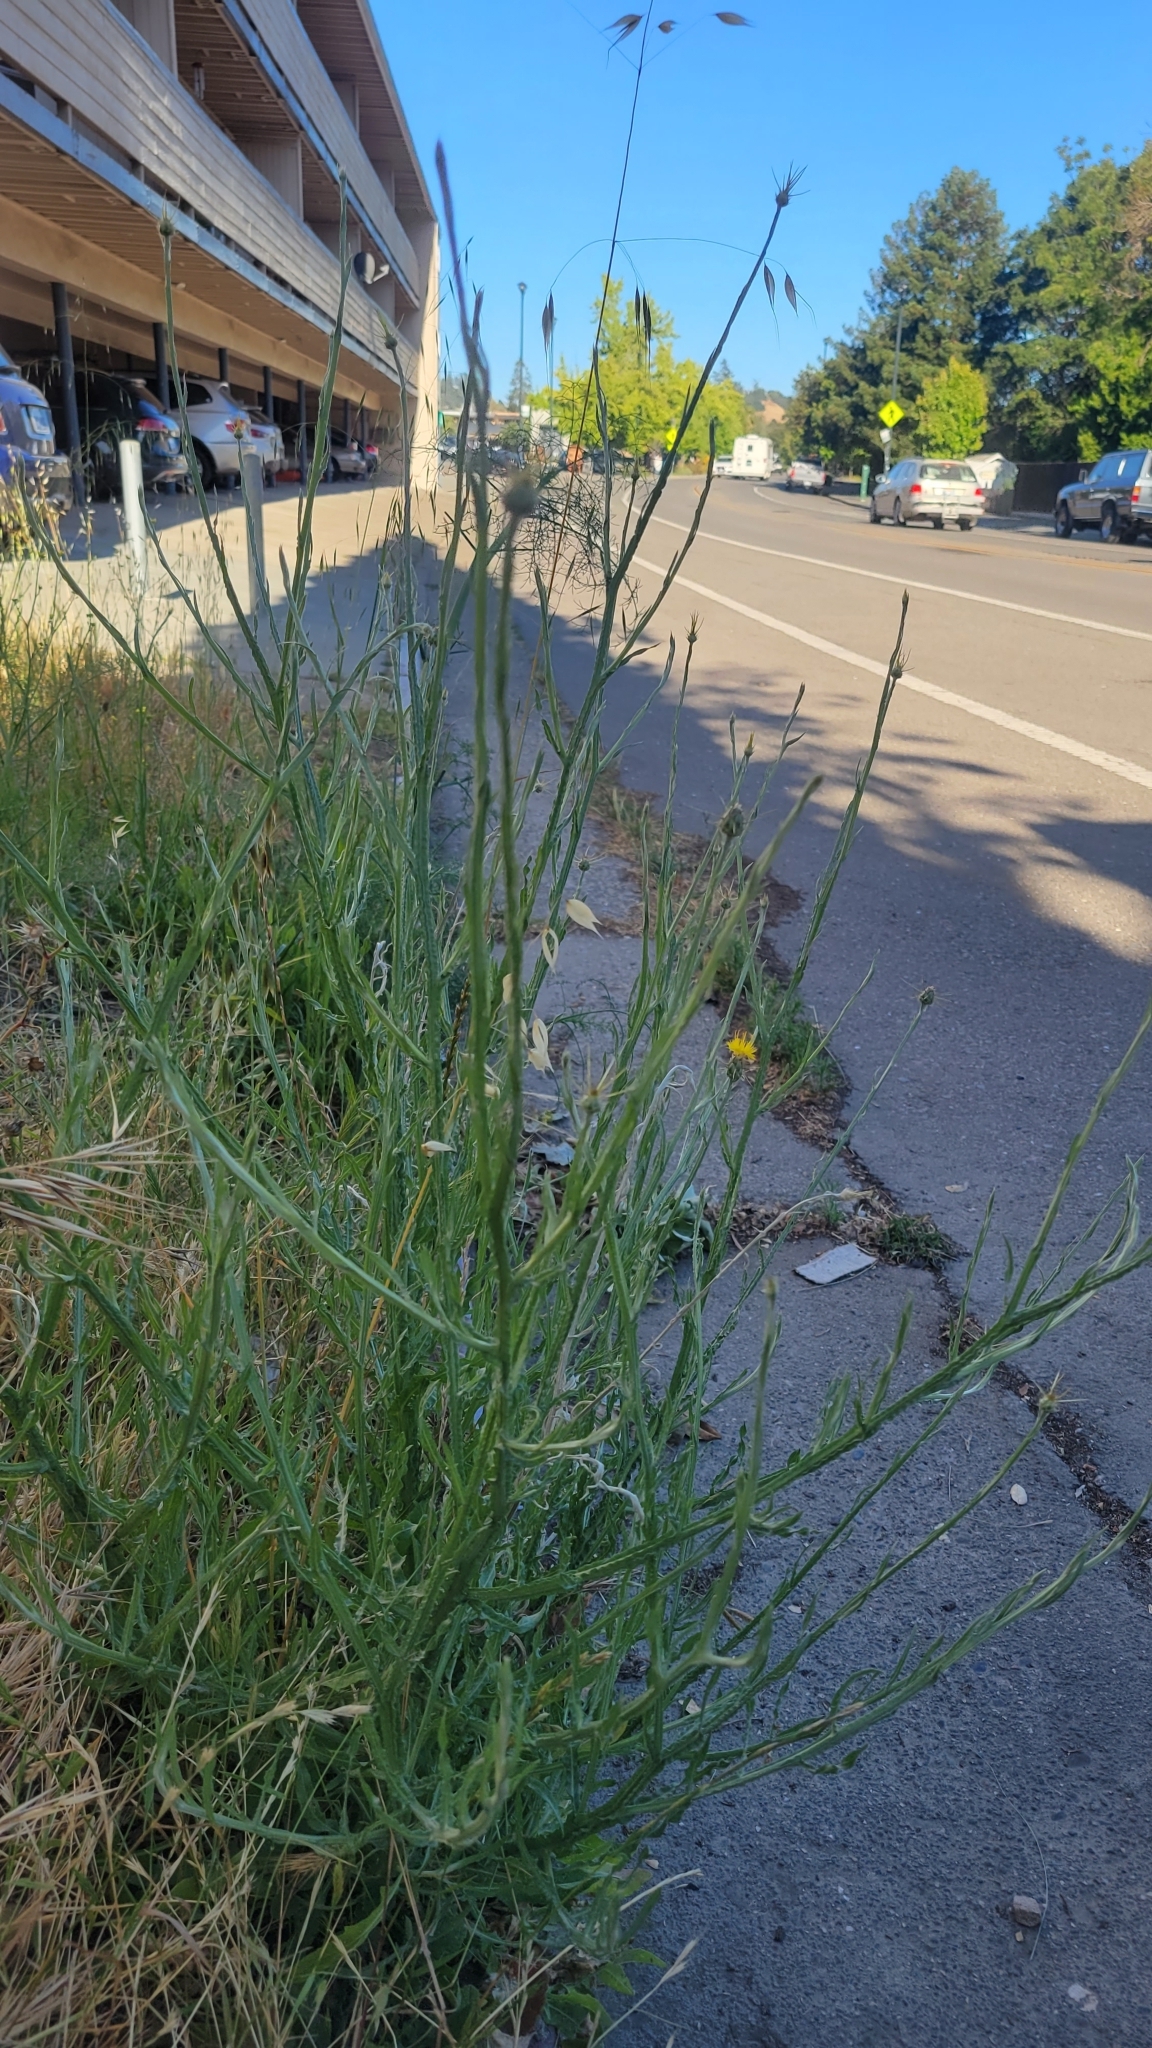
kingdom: Plantae
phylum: Tracheophyta
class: Magnoliopsida
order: Asterales
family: Asteraceae
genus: Centaurea
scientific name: Centaurea solstitialis
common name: Yellow star-thistle
